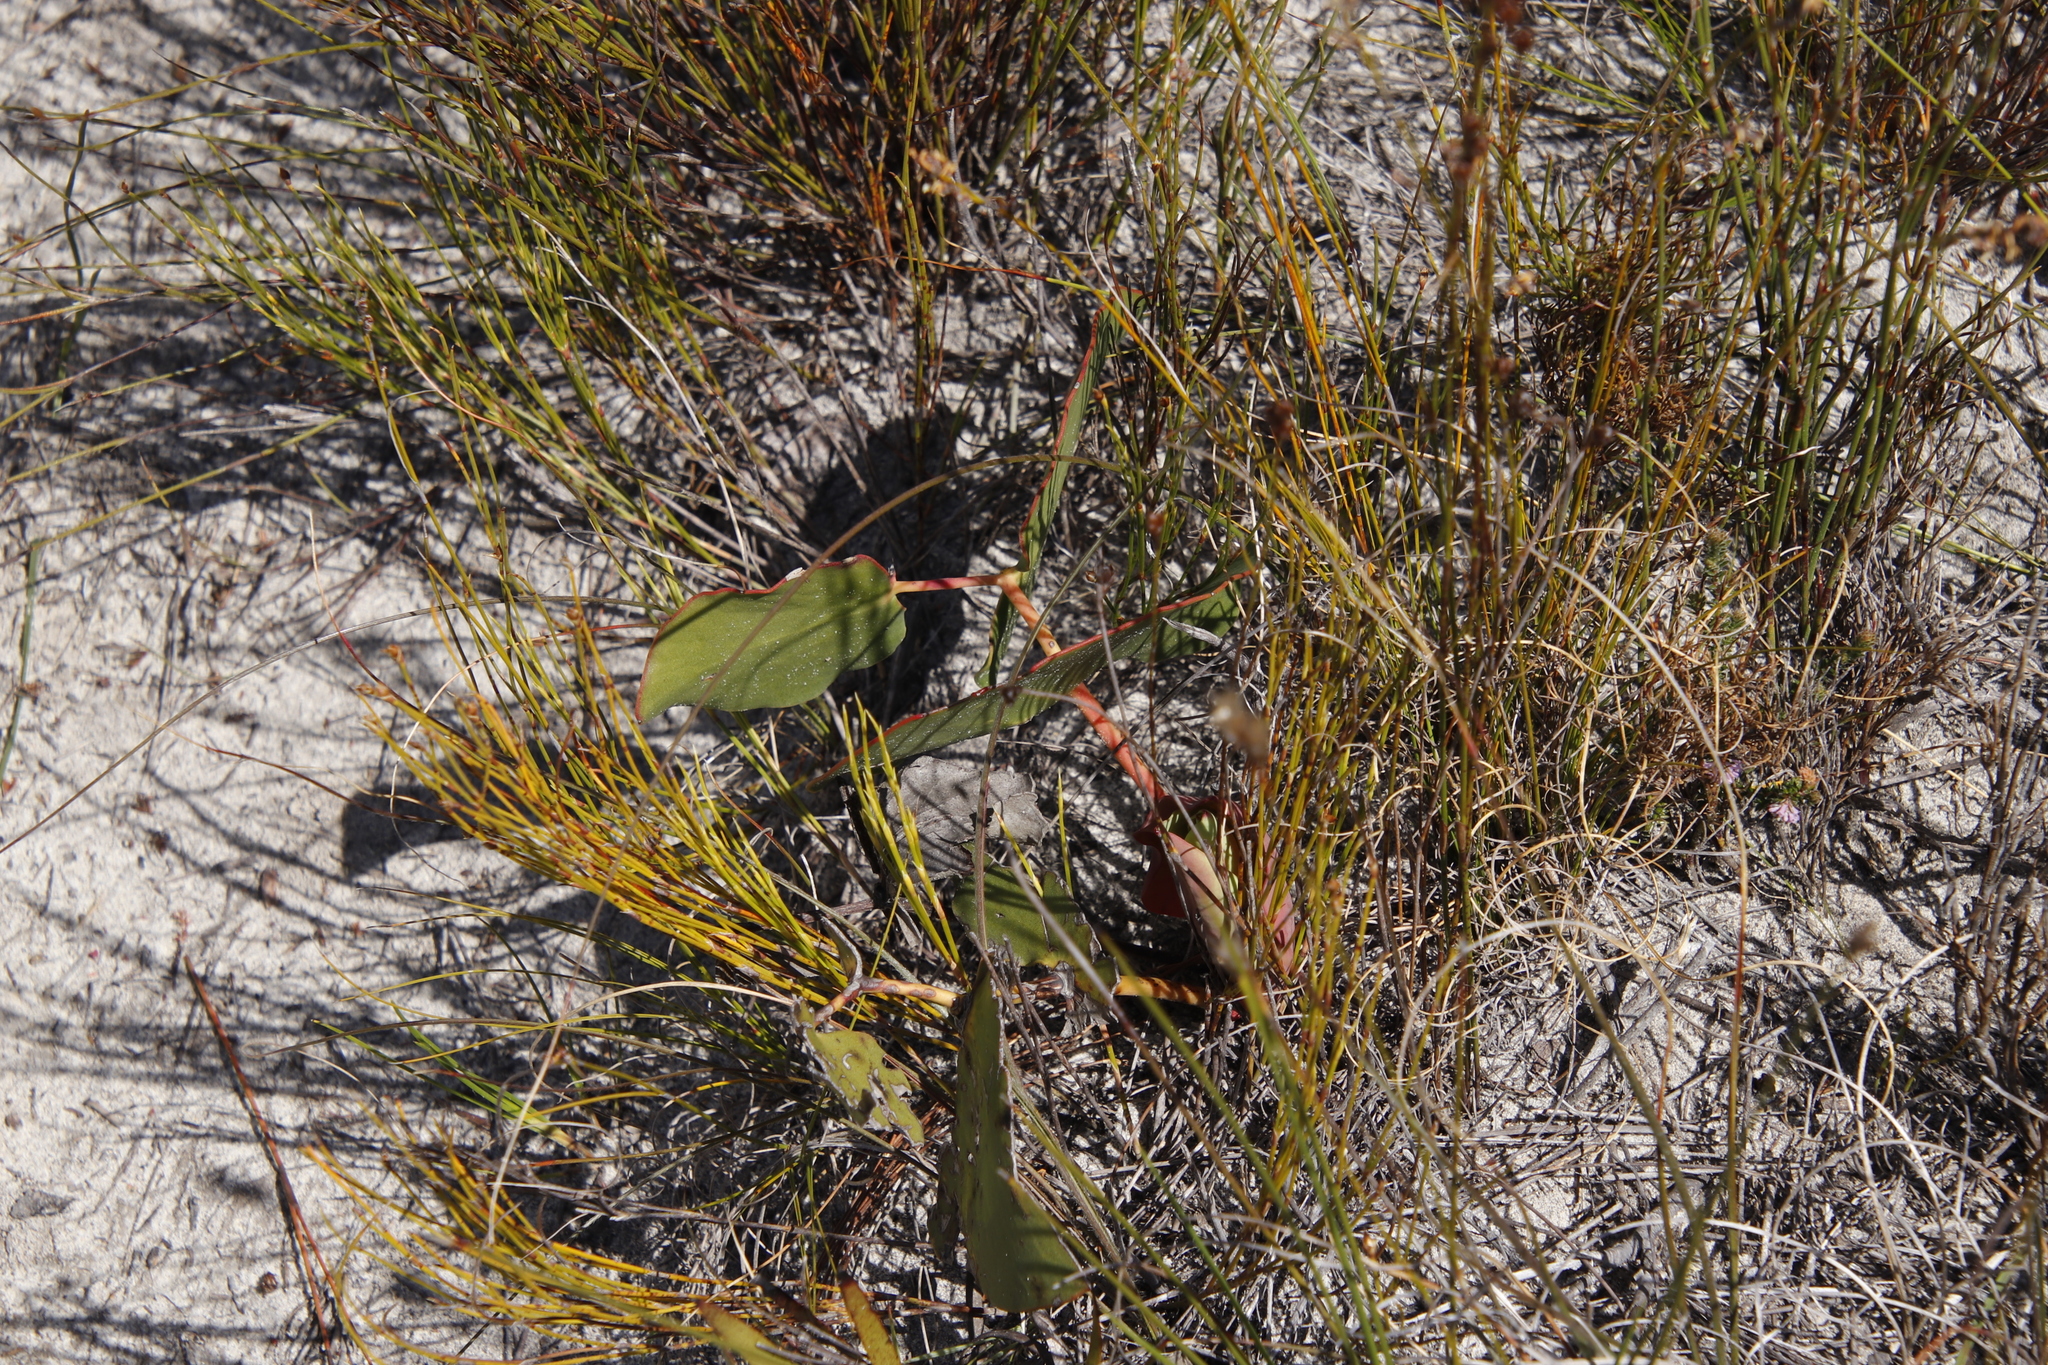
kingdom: Plantae
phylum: Tracheophyta
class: Magnoliopsida
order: Proteales
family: Proteaceae
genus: Protea
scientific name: Protea cordata
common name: Heart-leaf sugarbush
